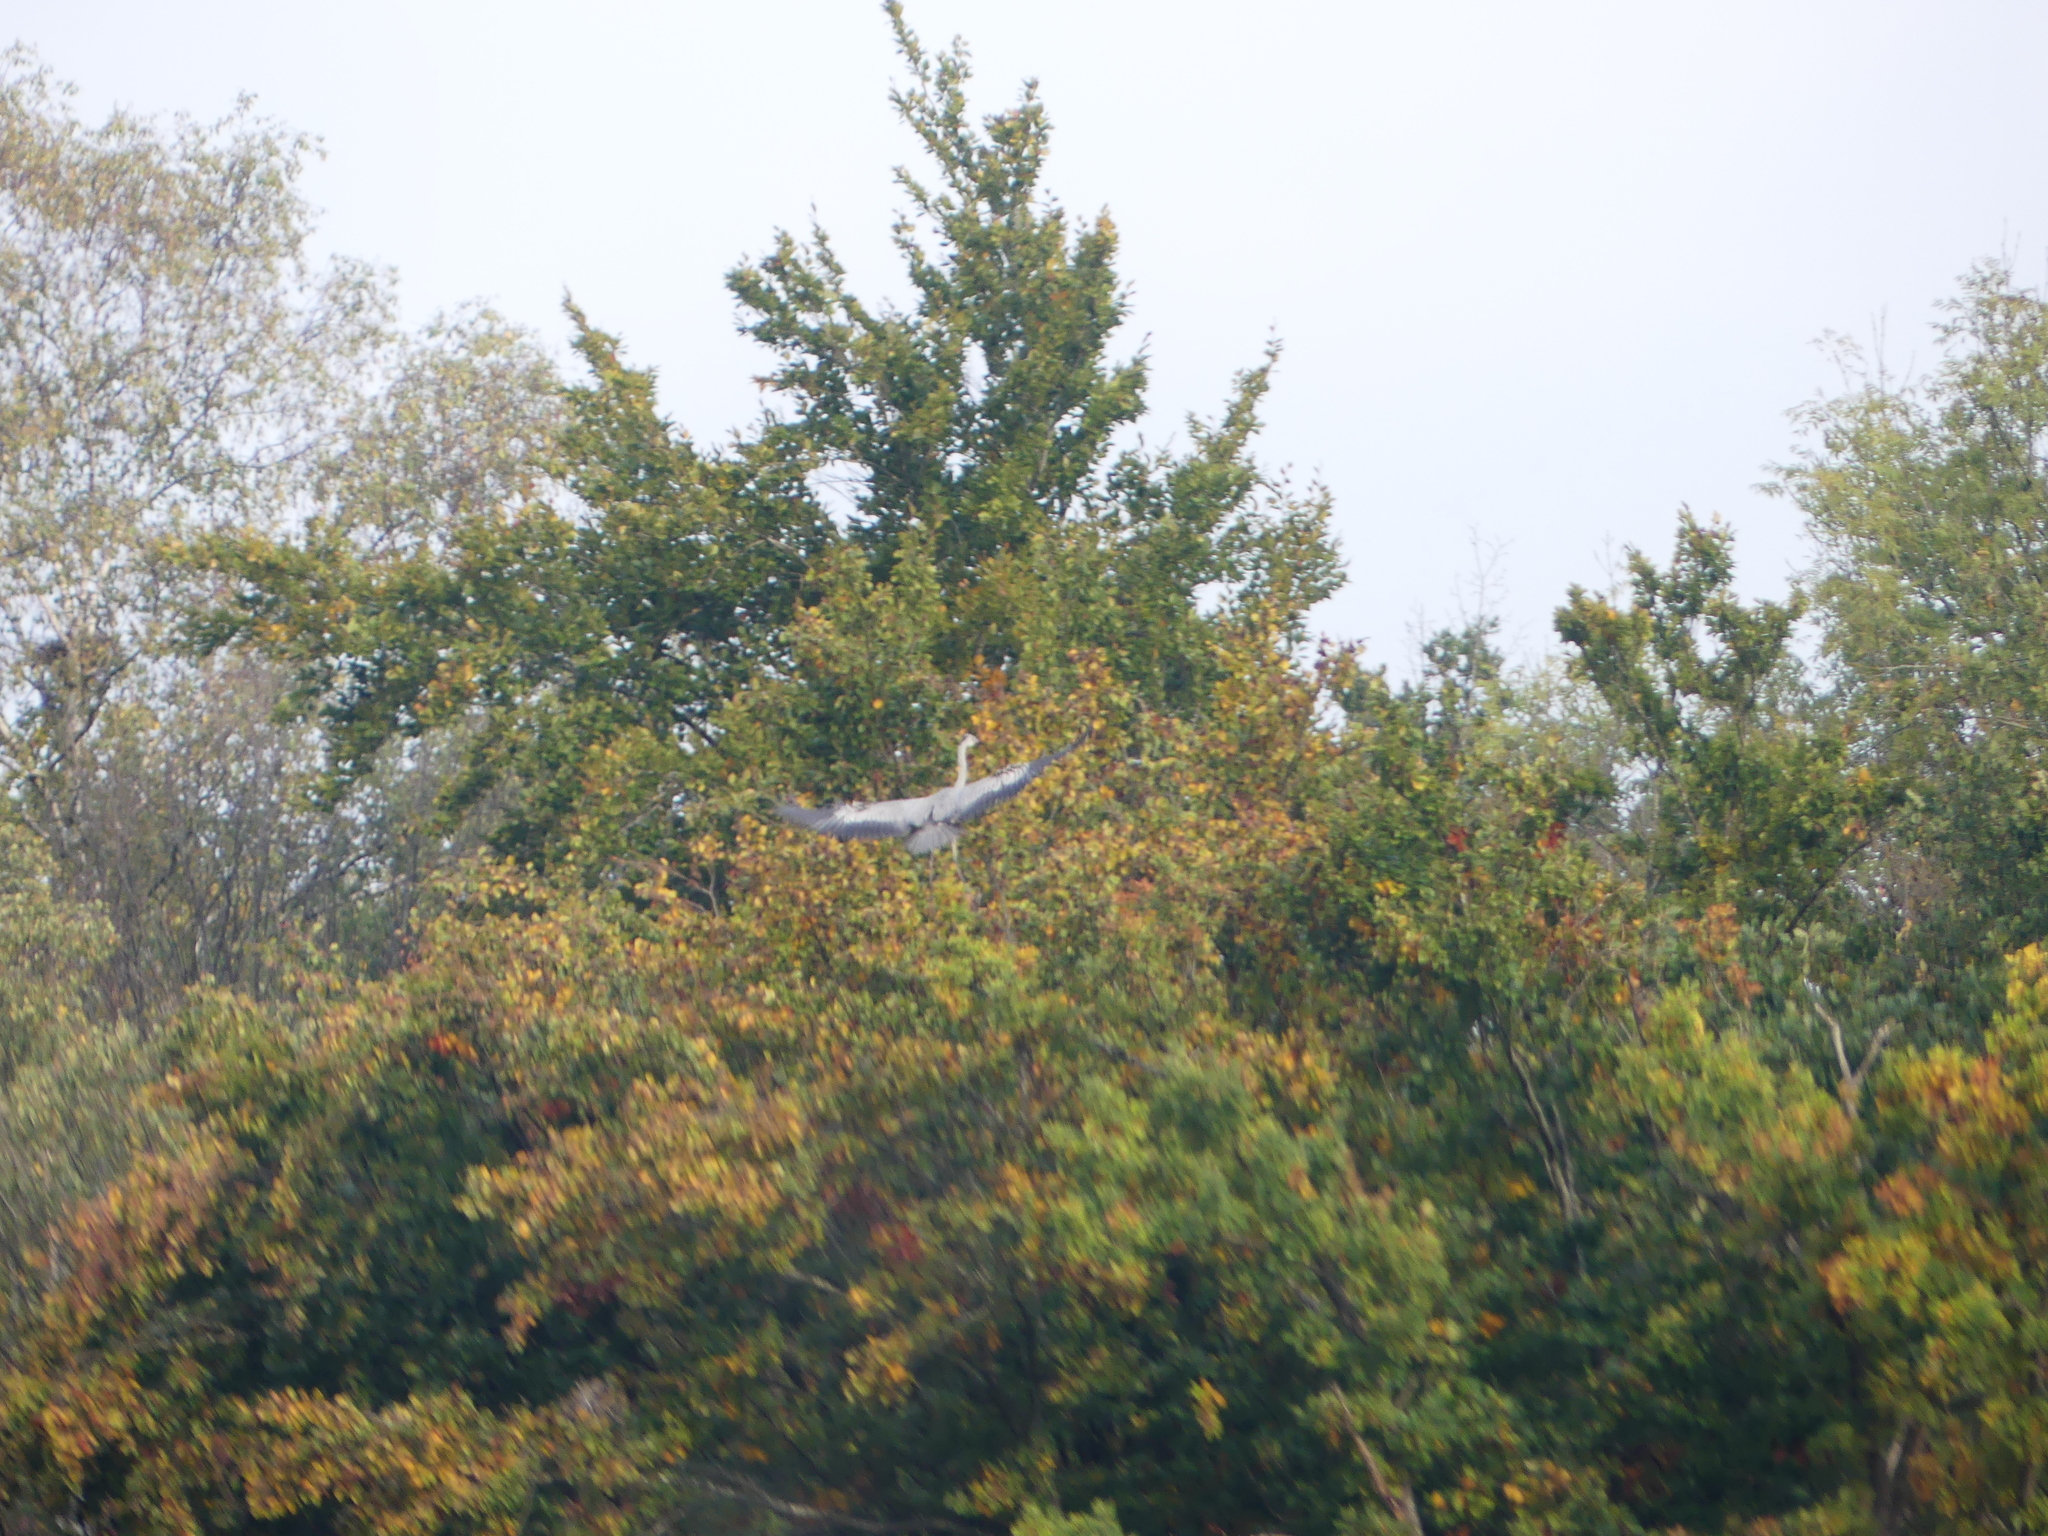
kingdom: Animalia
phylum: Chordata
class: Aves
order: Pelecaniformes
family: Ardeidae
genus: Ardea
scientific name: Ardea cinerea
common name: Grey heron
